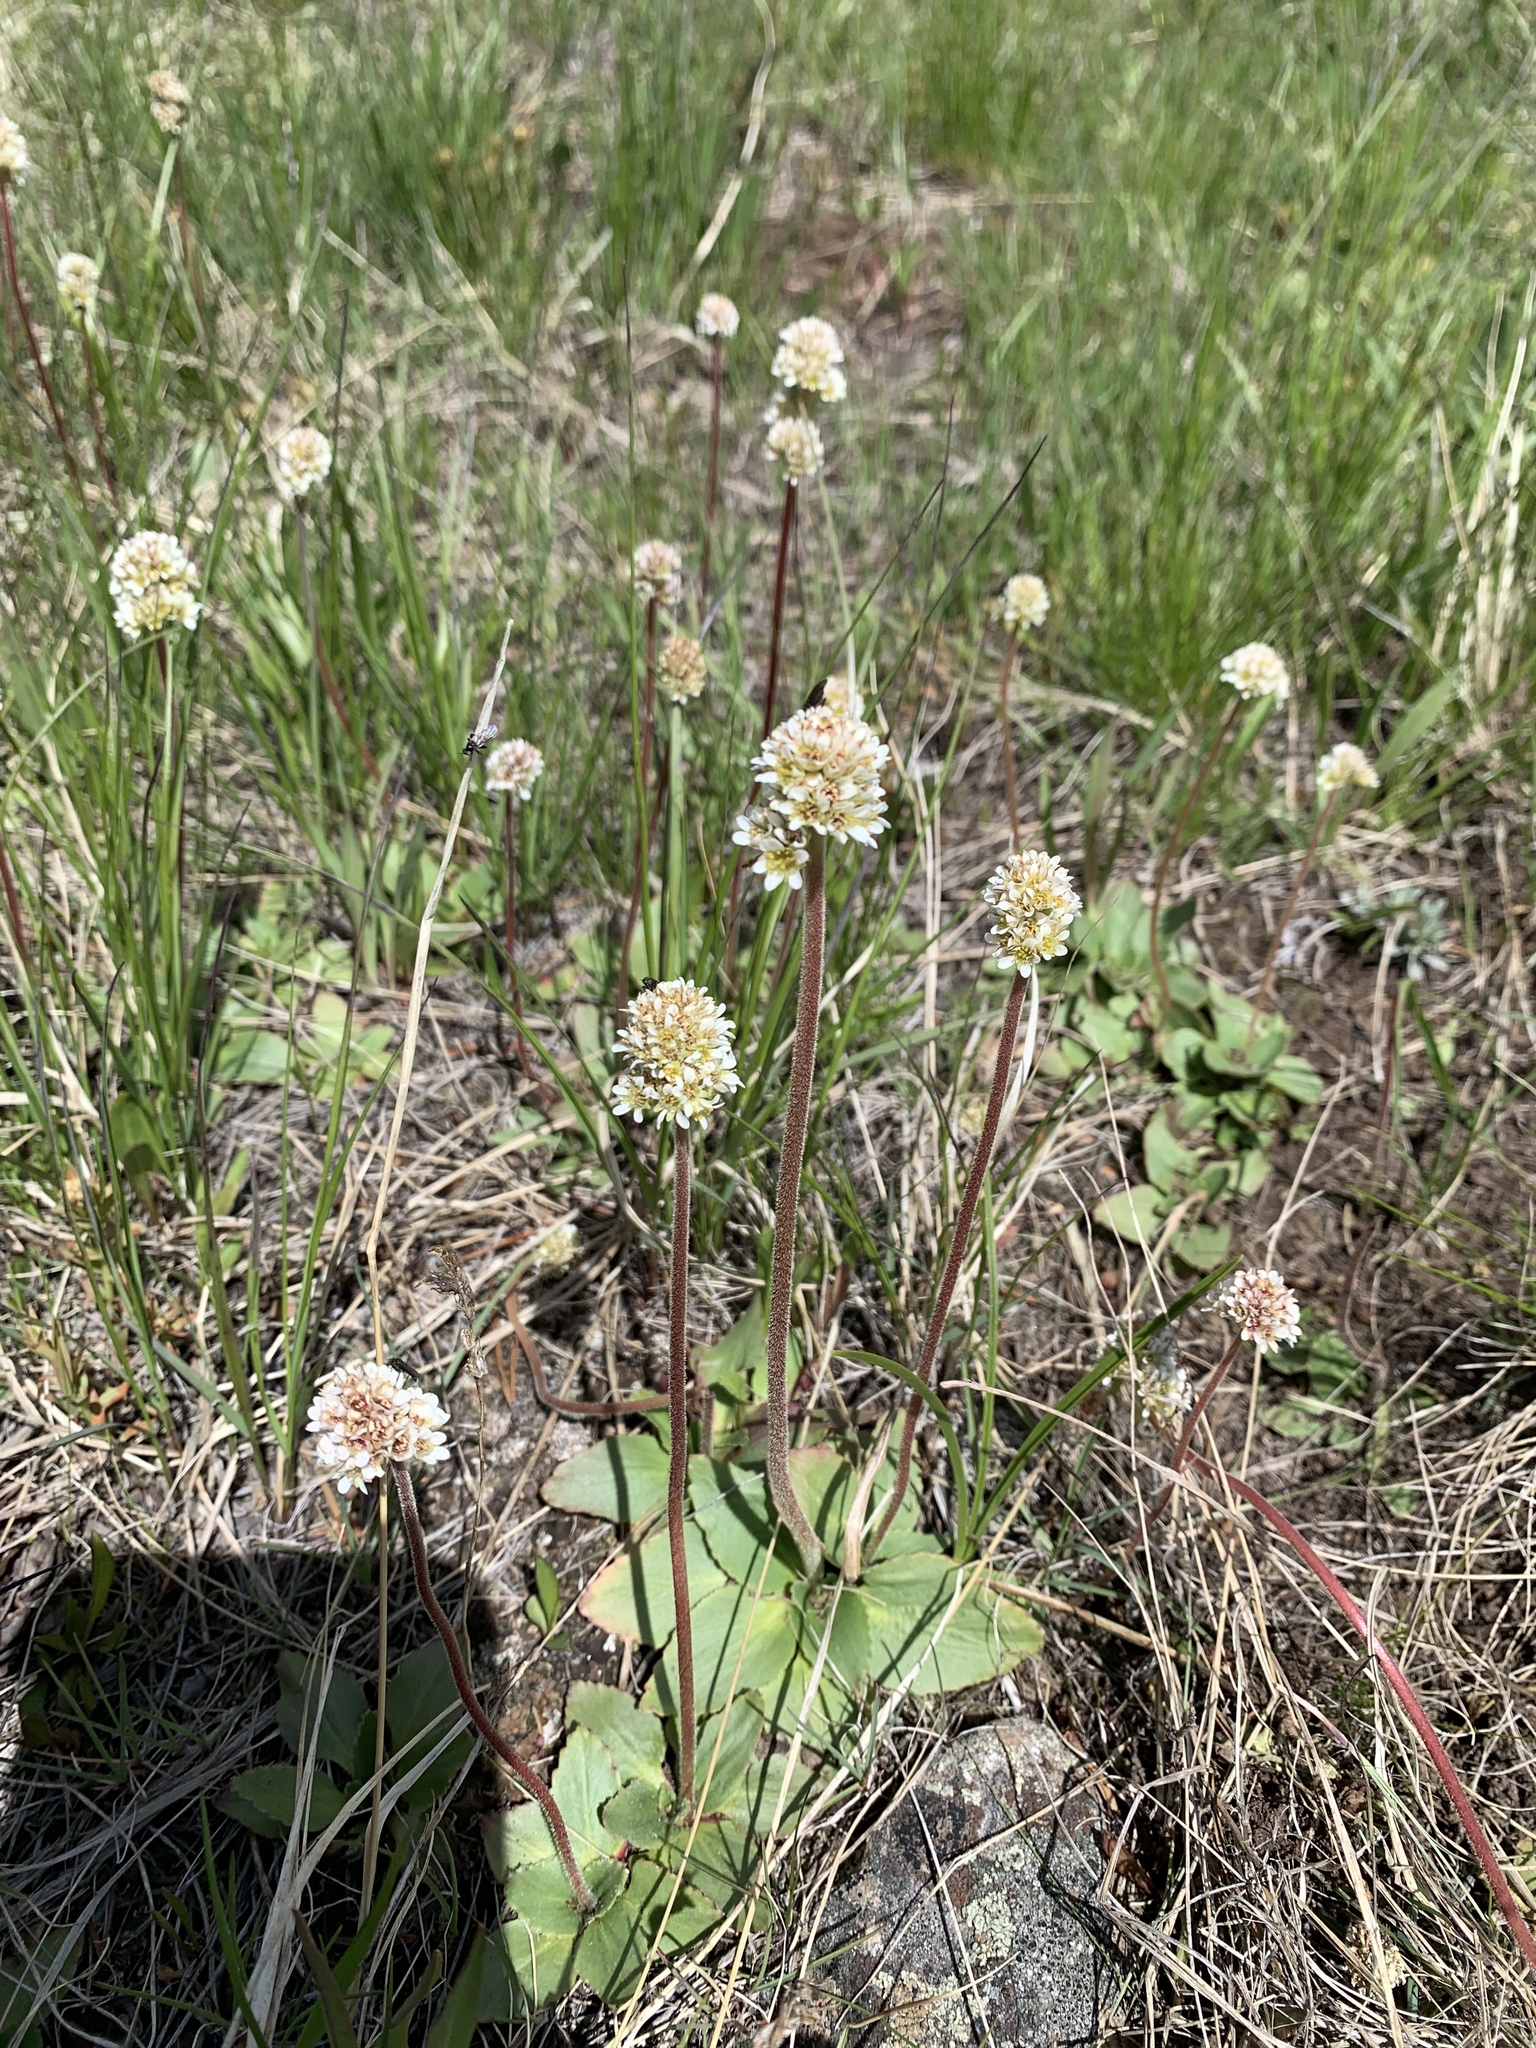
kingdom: Plantae
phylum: Tracheophyta
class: Magnoliopsida
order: Saxifragales
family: Saxifragaceae
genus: Micranthes
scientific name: Micranthes rhomboidea
